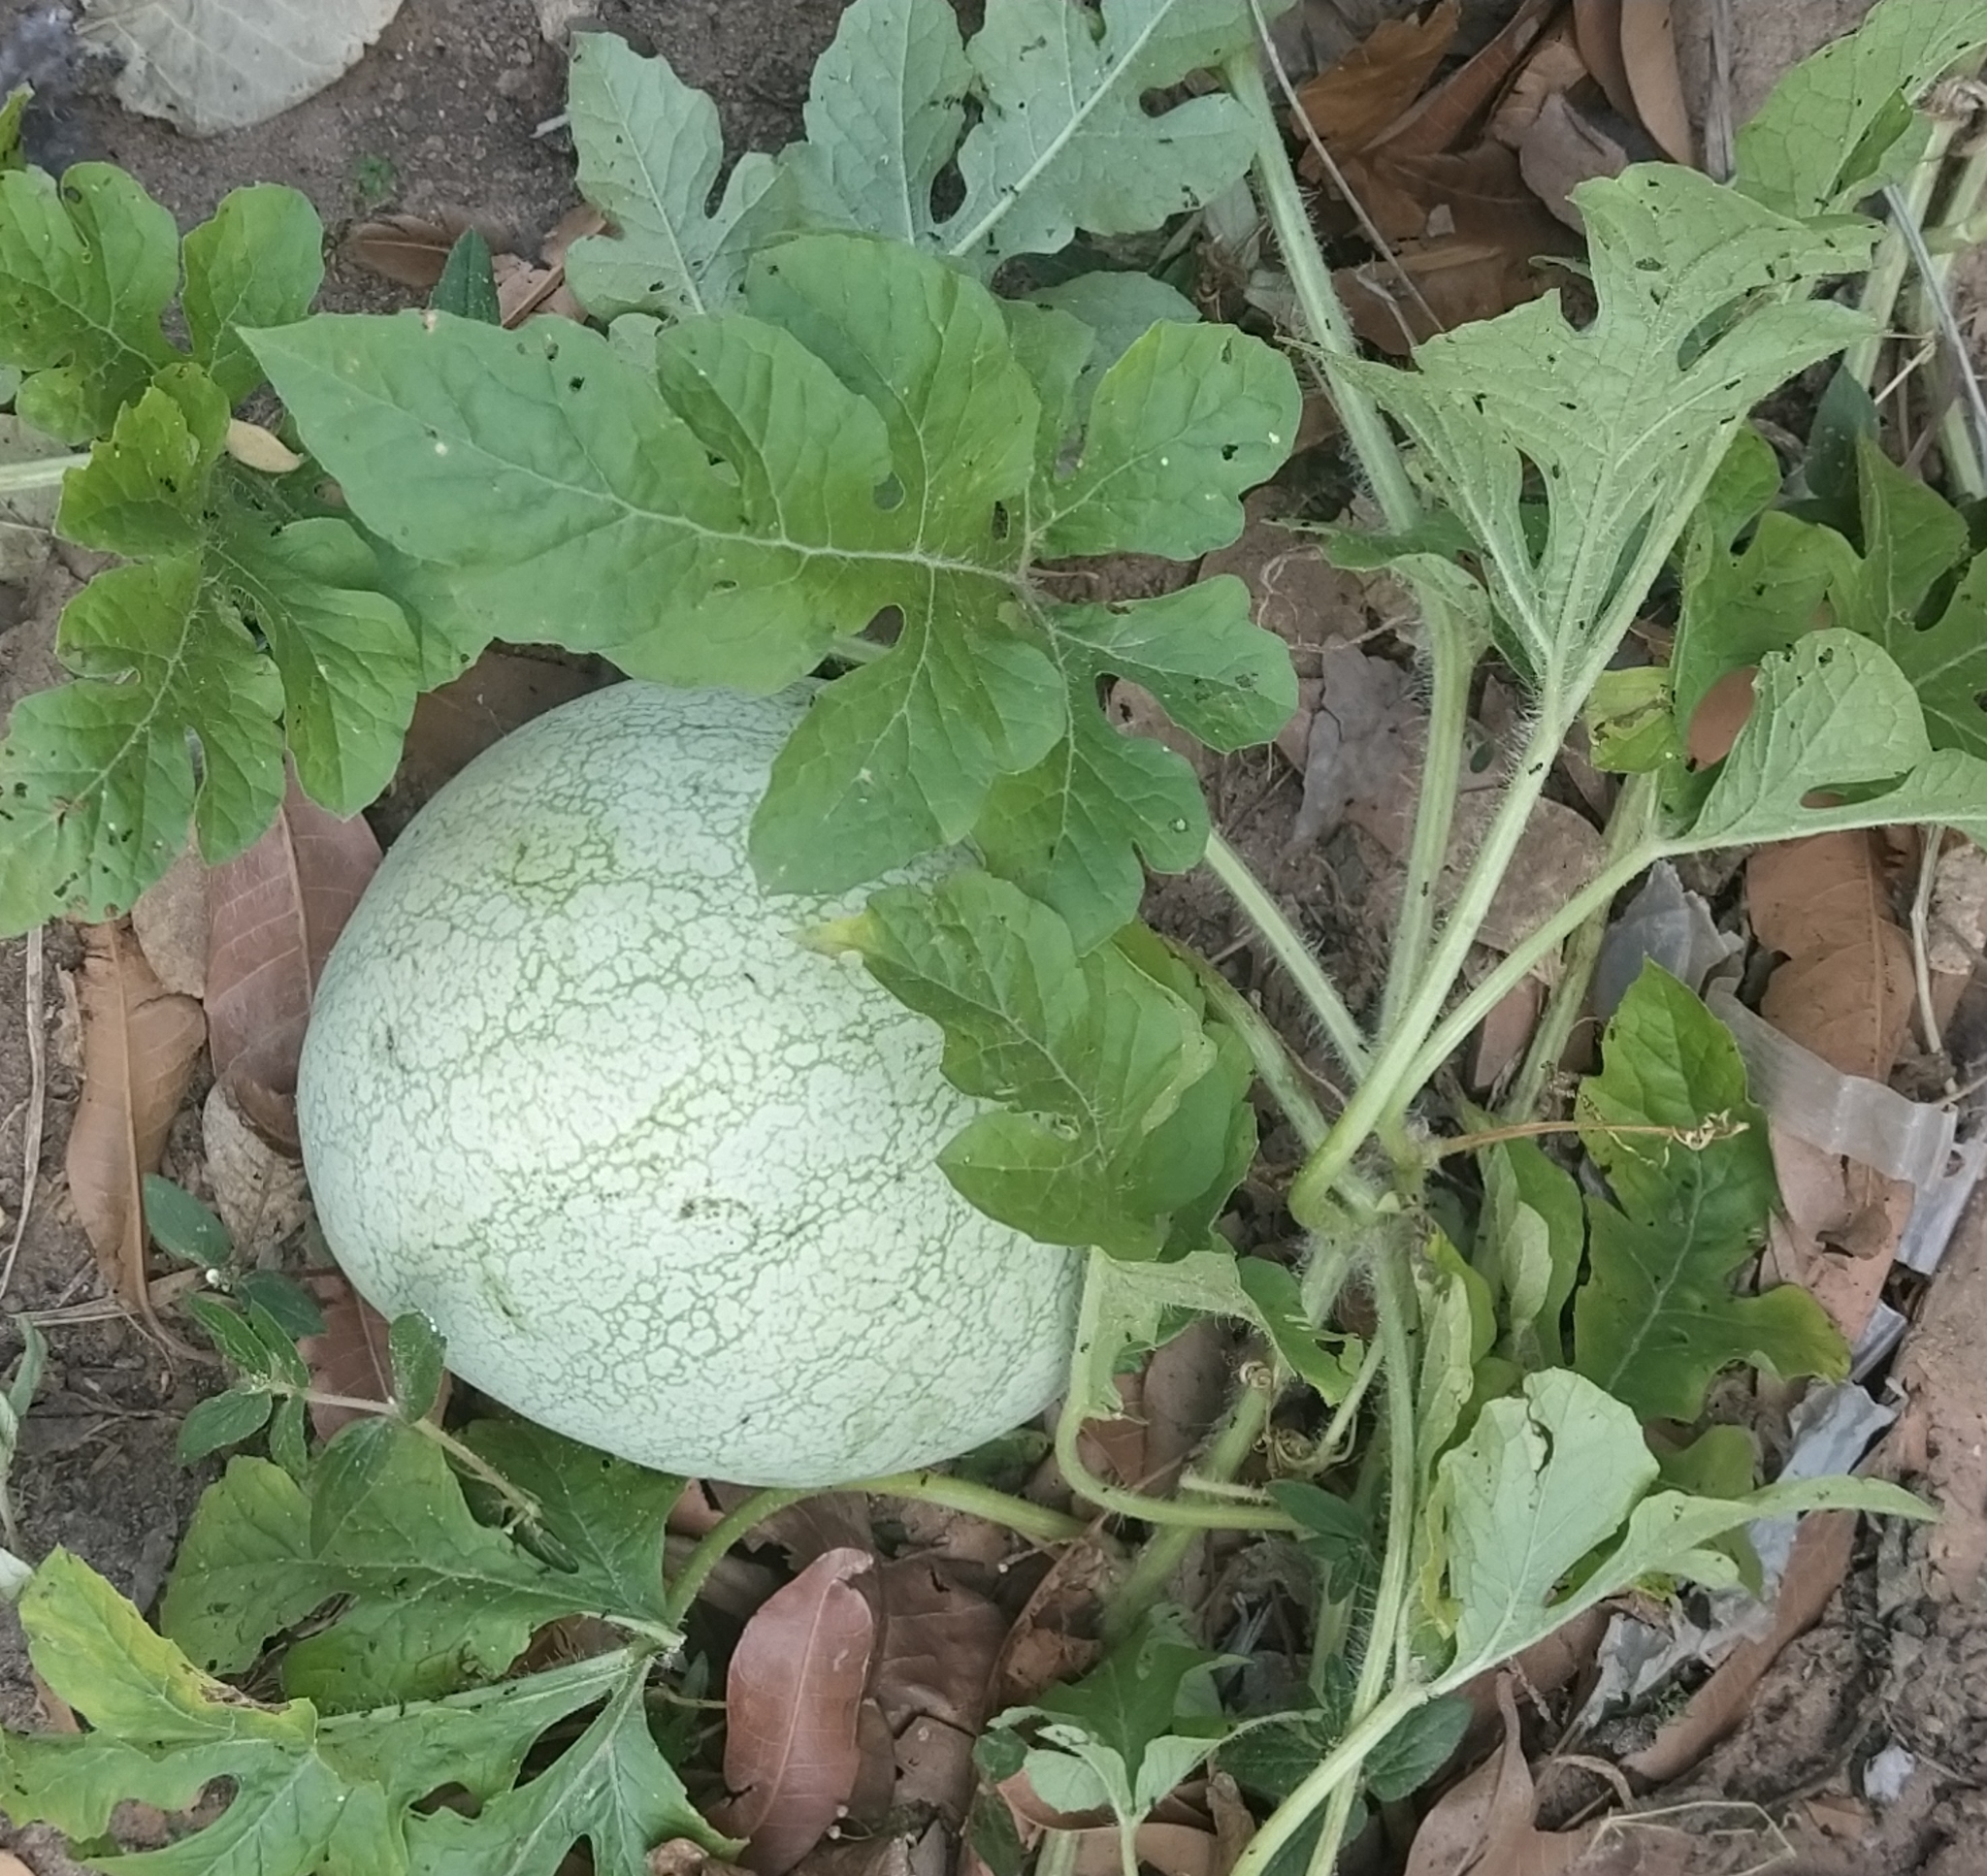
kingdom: Plantae
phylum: Tracheophyta
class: Magnoliopsida
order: Cucurbitales
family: Cucurbitaceae
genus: Citrullus
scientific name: Citrullus lanatus
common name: Watermelon
